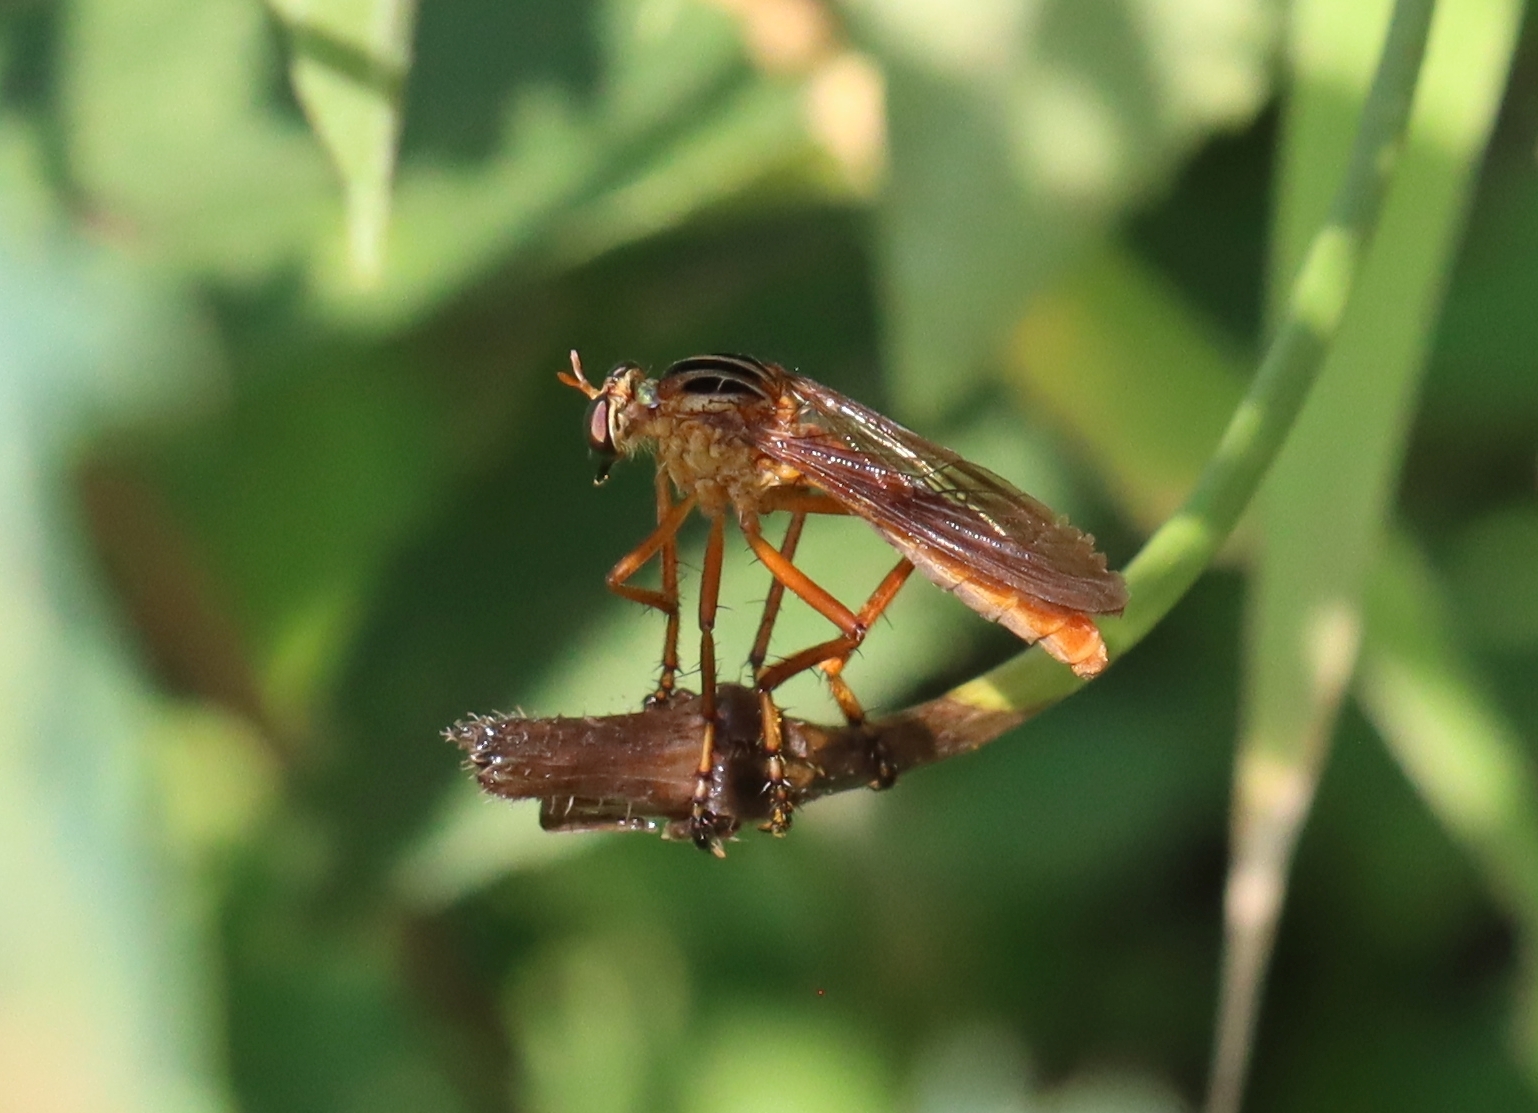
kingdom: Animalia
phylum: Arthropoda
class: Insecta
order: Diptera
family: Asilidae
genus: Diogmites
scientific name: Diogmites neoternatus
